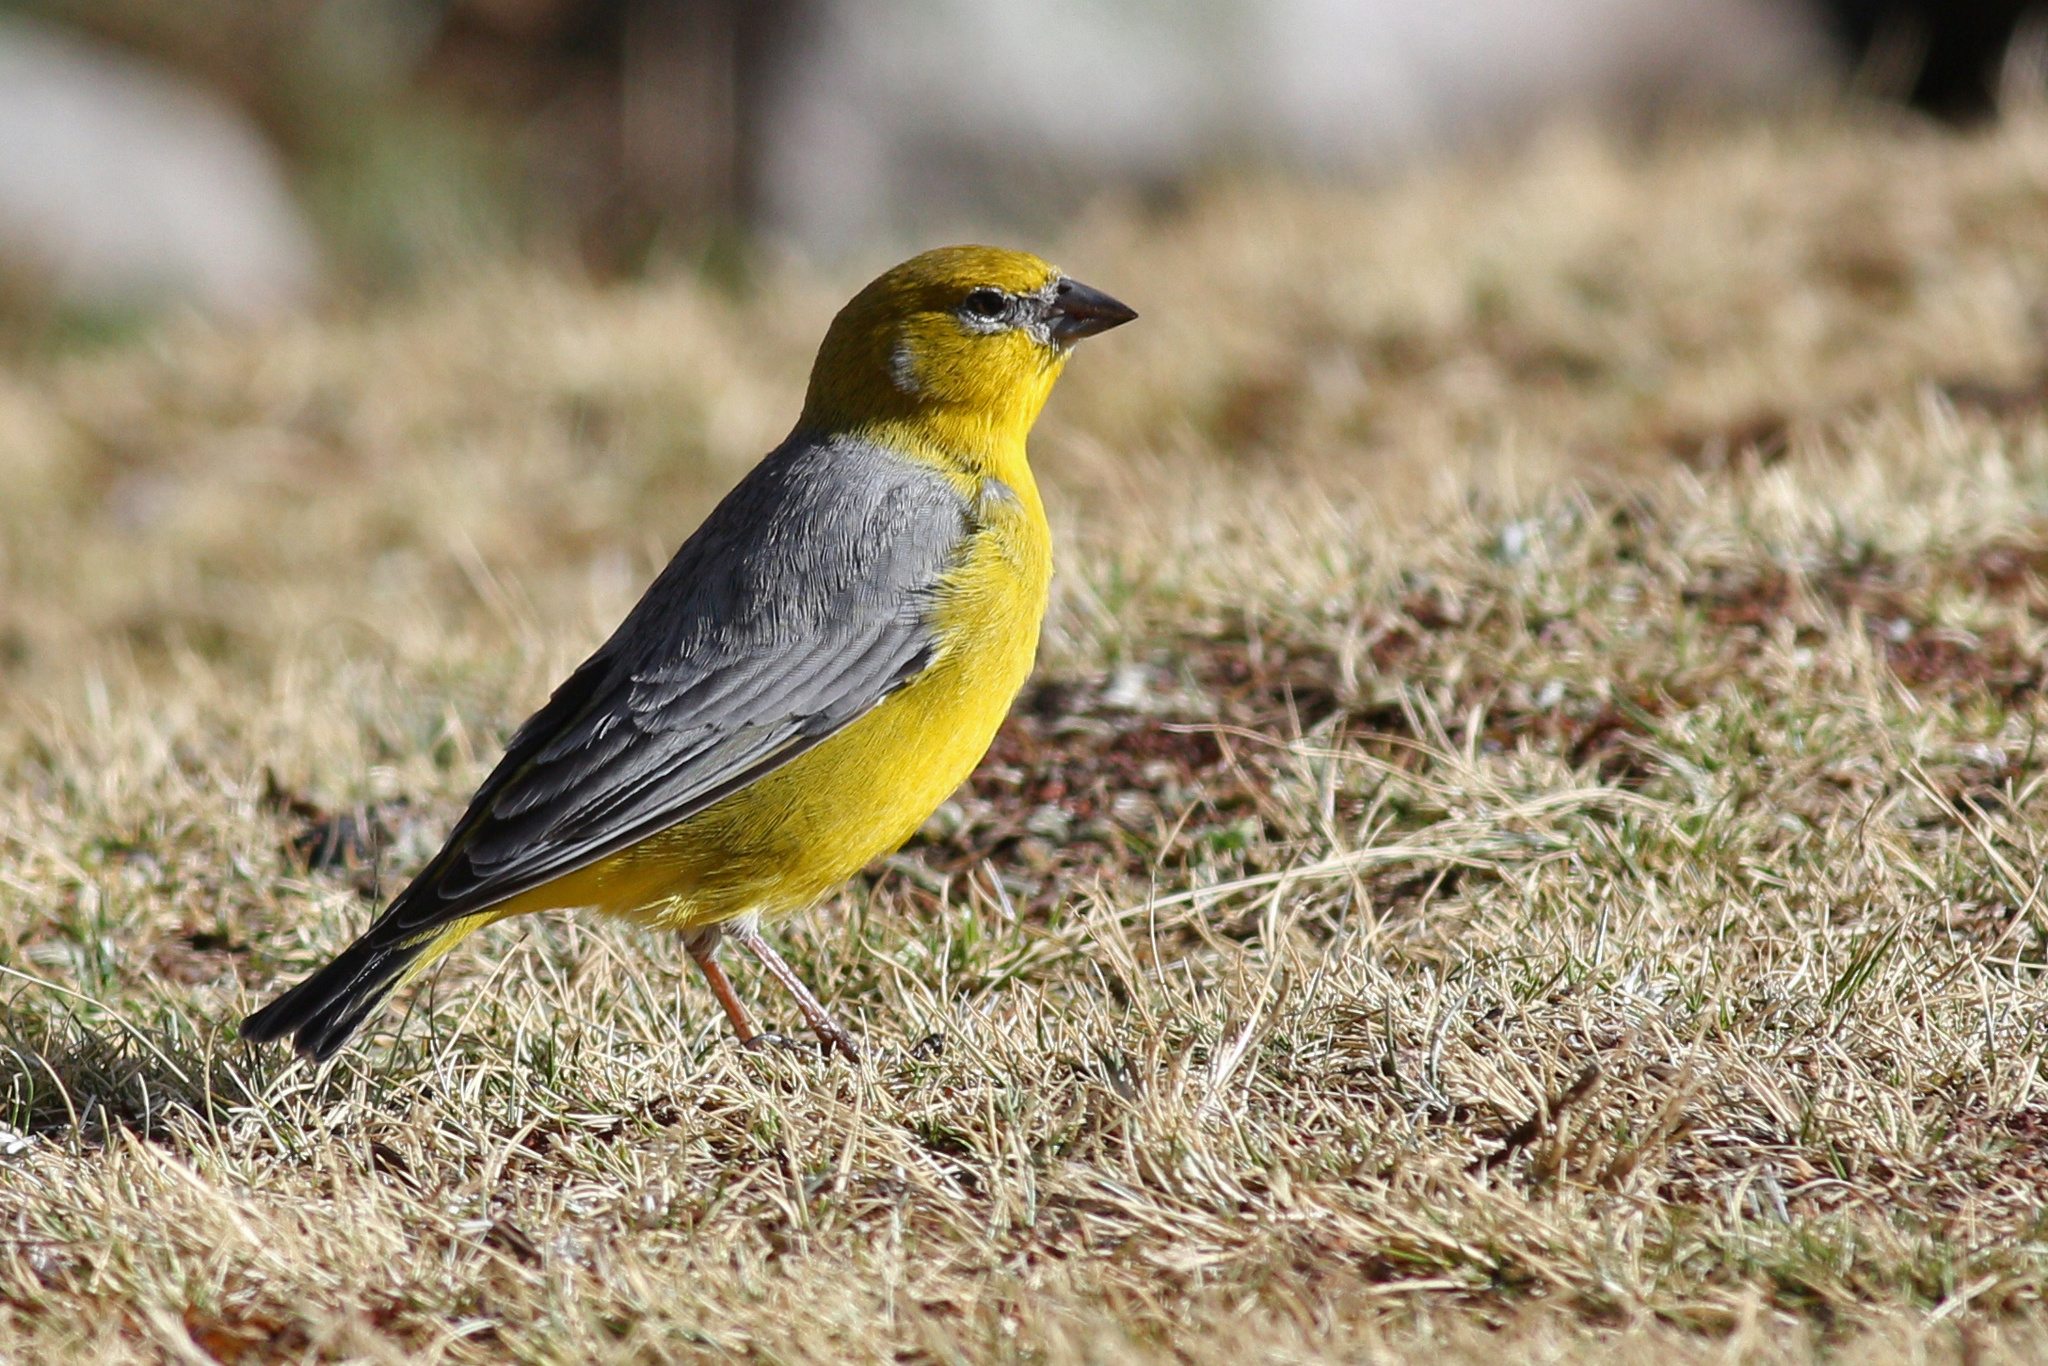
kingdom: Animalia
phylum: Chordata
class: Aves
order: Passeriformes
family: Thraupidae
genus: Sicalis
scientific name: Sicalis uropigyalis
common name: Bright-rumped yellow finch
